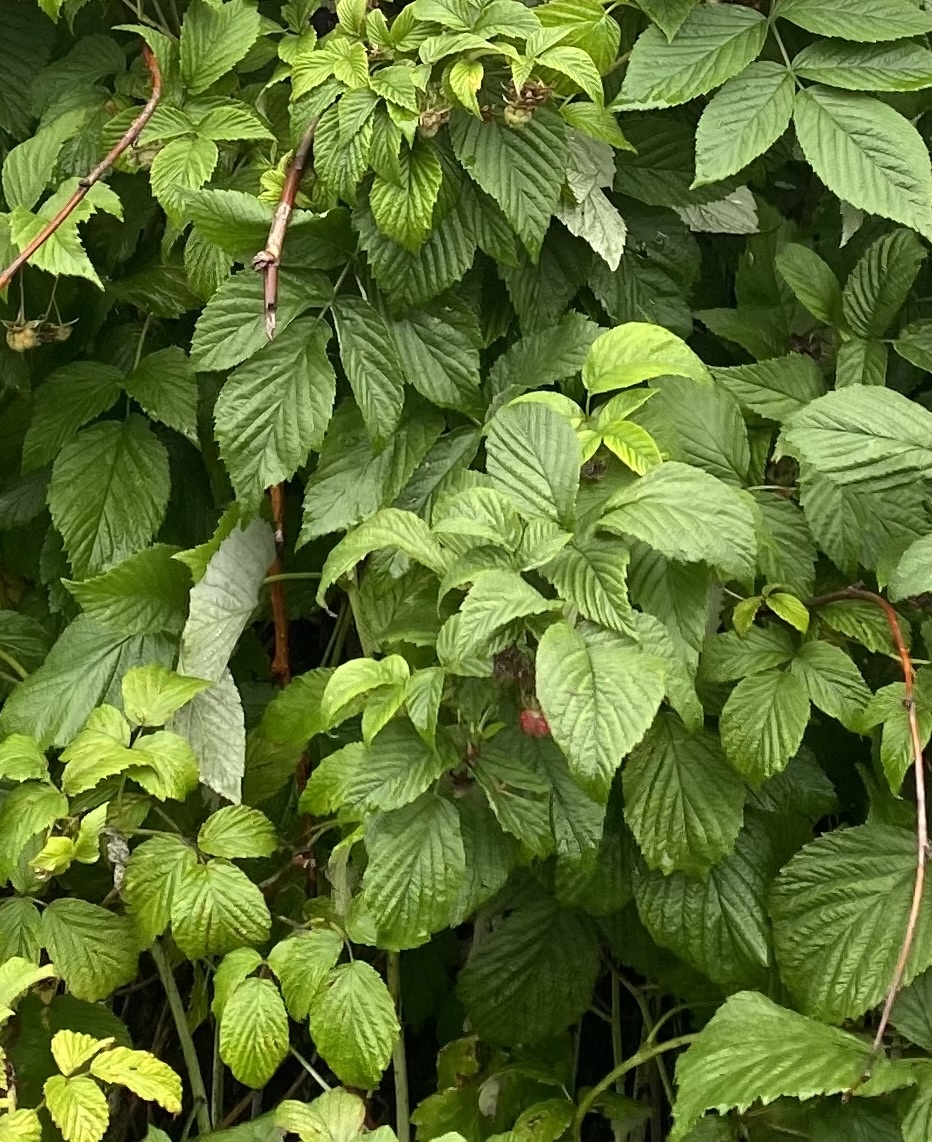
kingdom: Plantae
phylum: Tracheophyta
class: Magnoliopsida
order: Rosales
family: Rosaceae
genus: Rubus
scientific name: Rubus idaeus
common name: Raspberry
